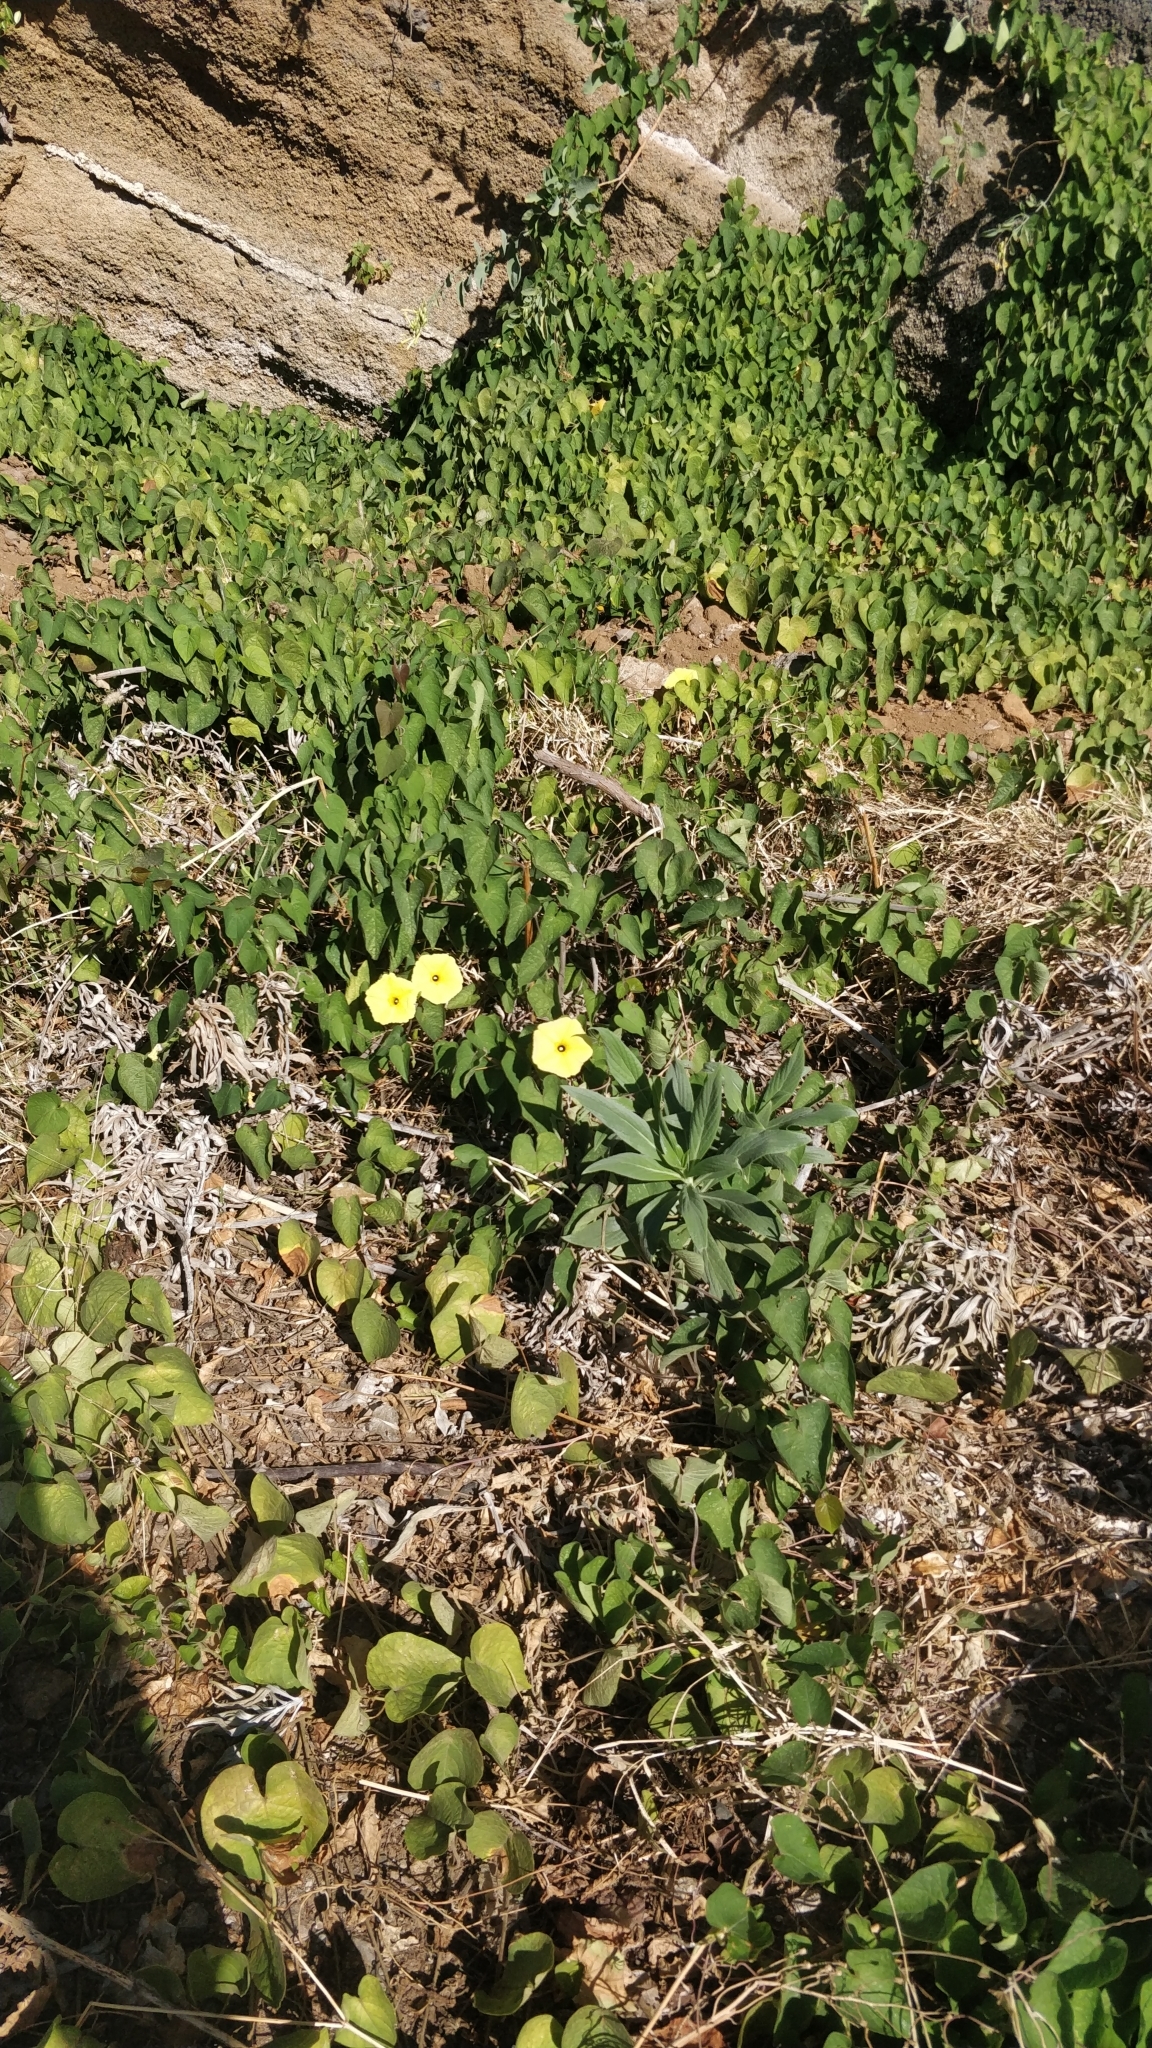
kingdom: Plantae
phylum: Tracheophyta
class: Magnoliopsida
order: Solanales
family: Convolvulaceae
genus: Ipomoea
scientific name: Ipomoea ochracea
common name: Fence morning-glory
